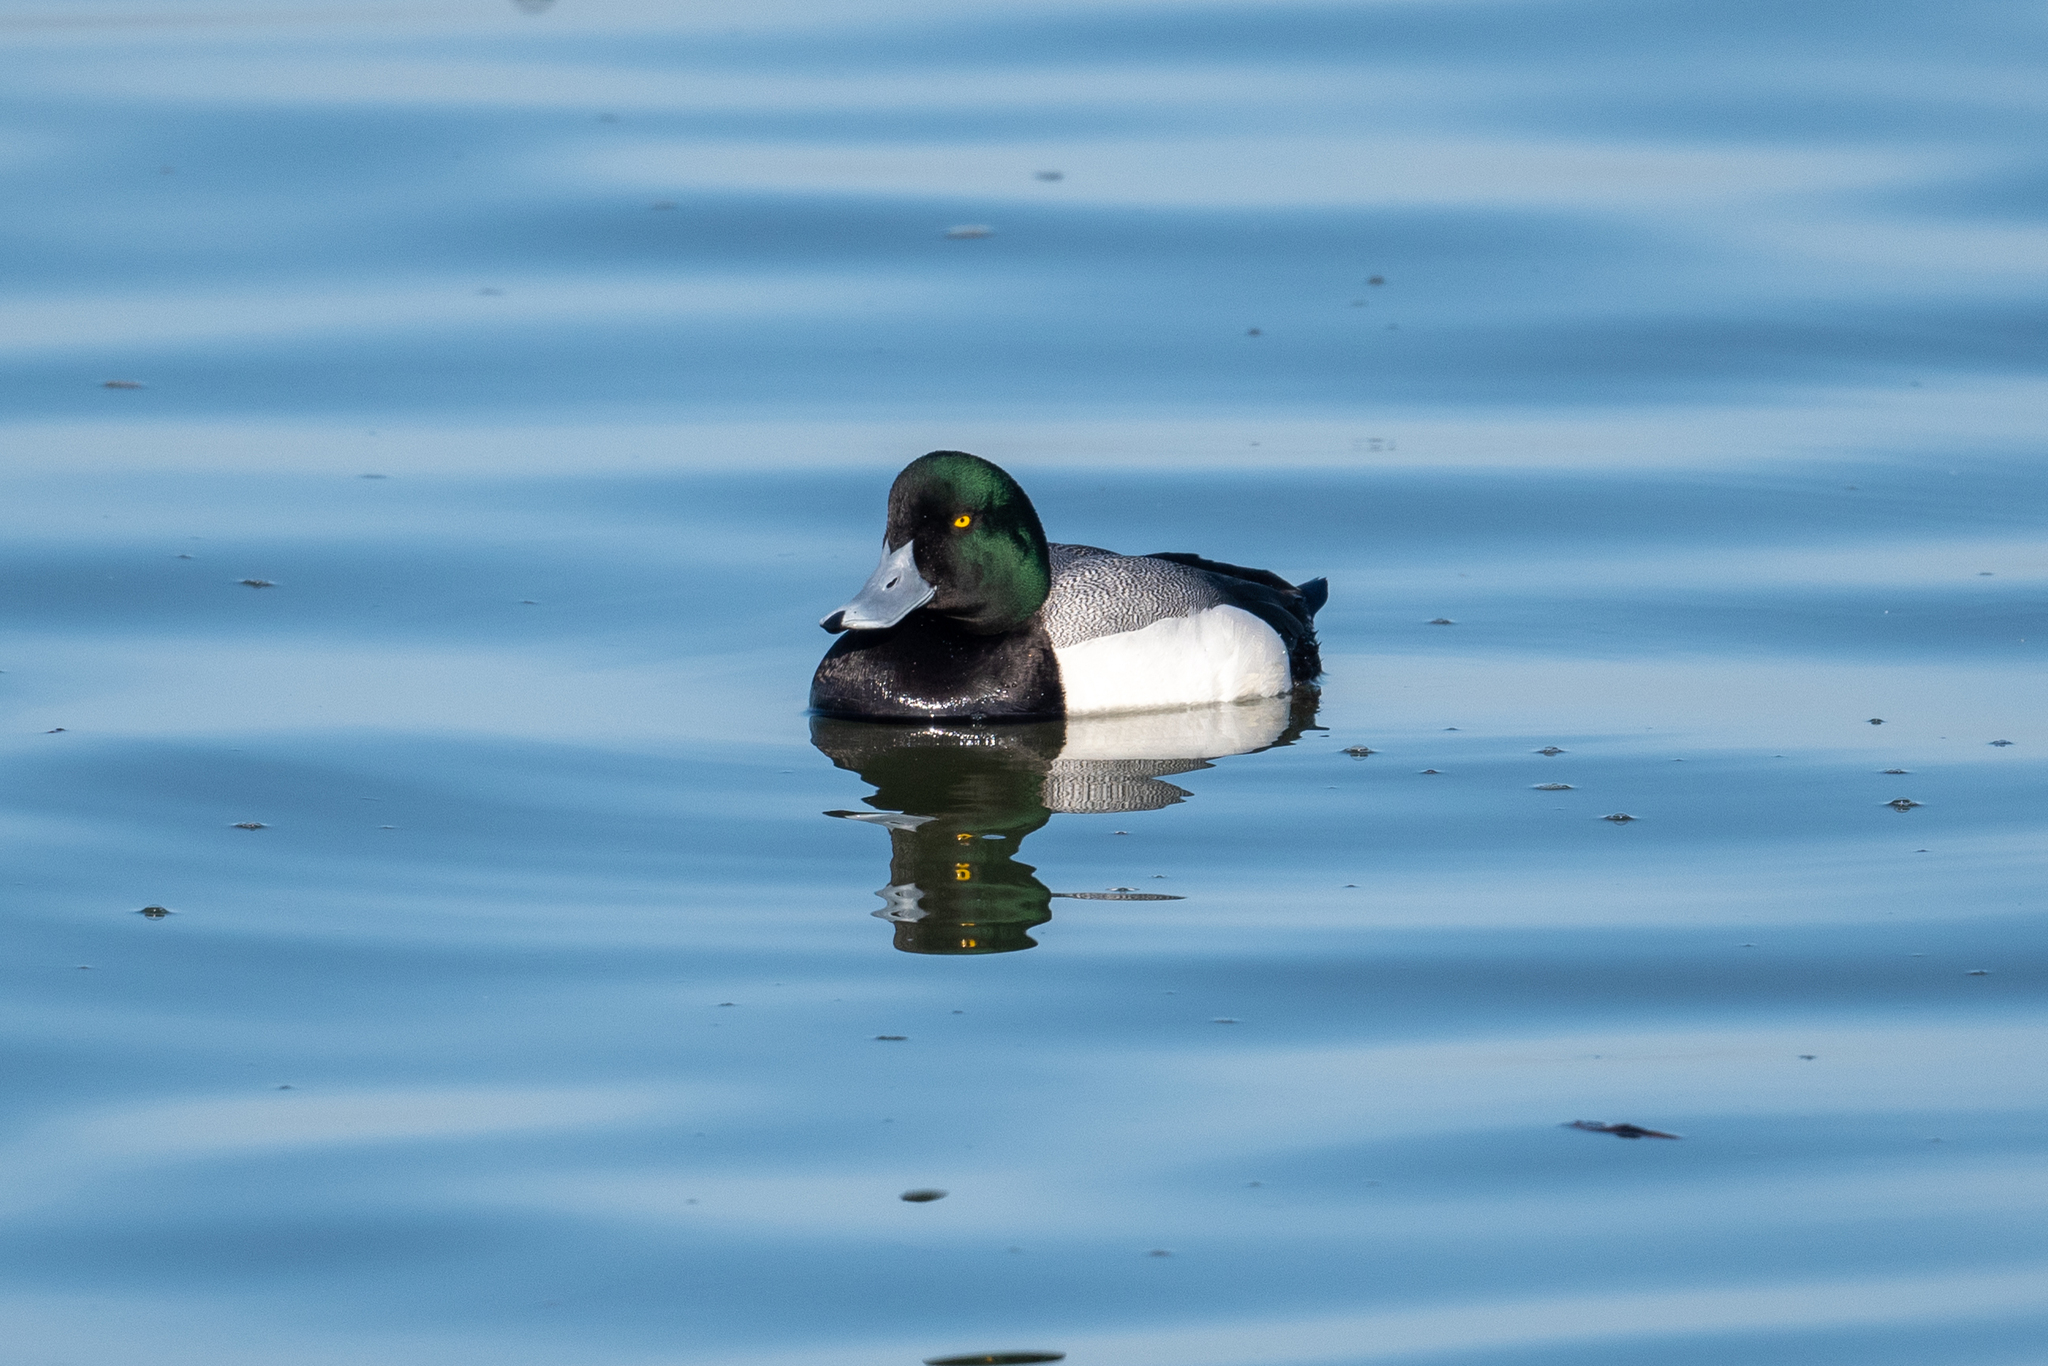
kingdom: Animalia
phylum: Chordata
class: Aves
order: Anseriformes
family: Anatidae
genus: Aythya
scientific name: Aythya marila
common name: Greater scaup
